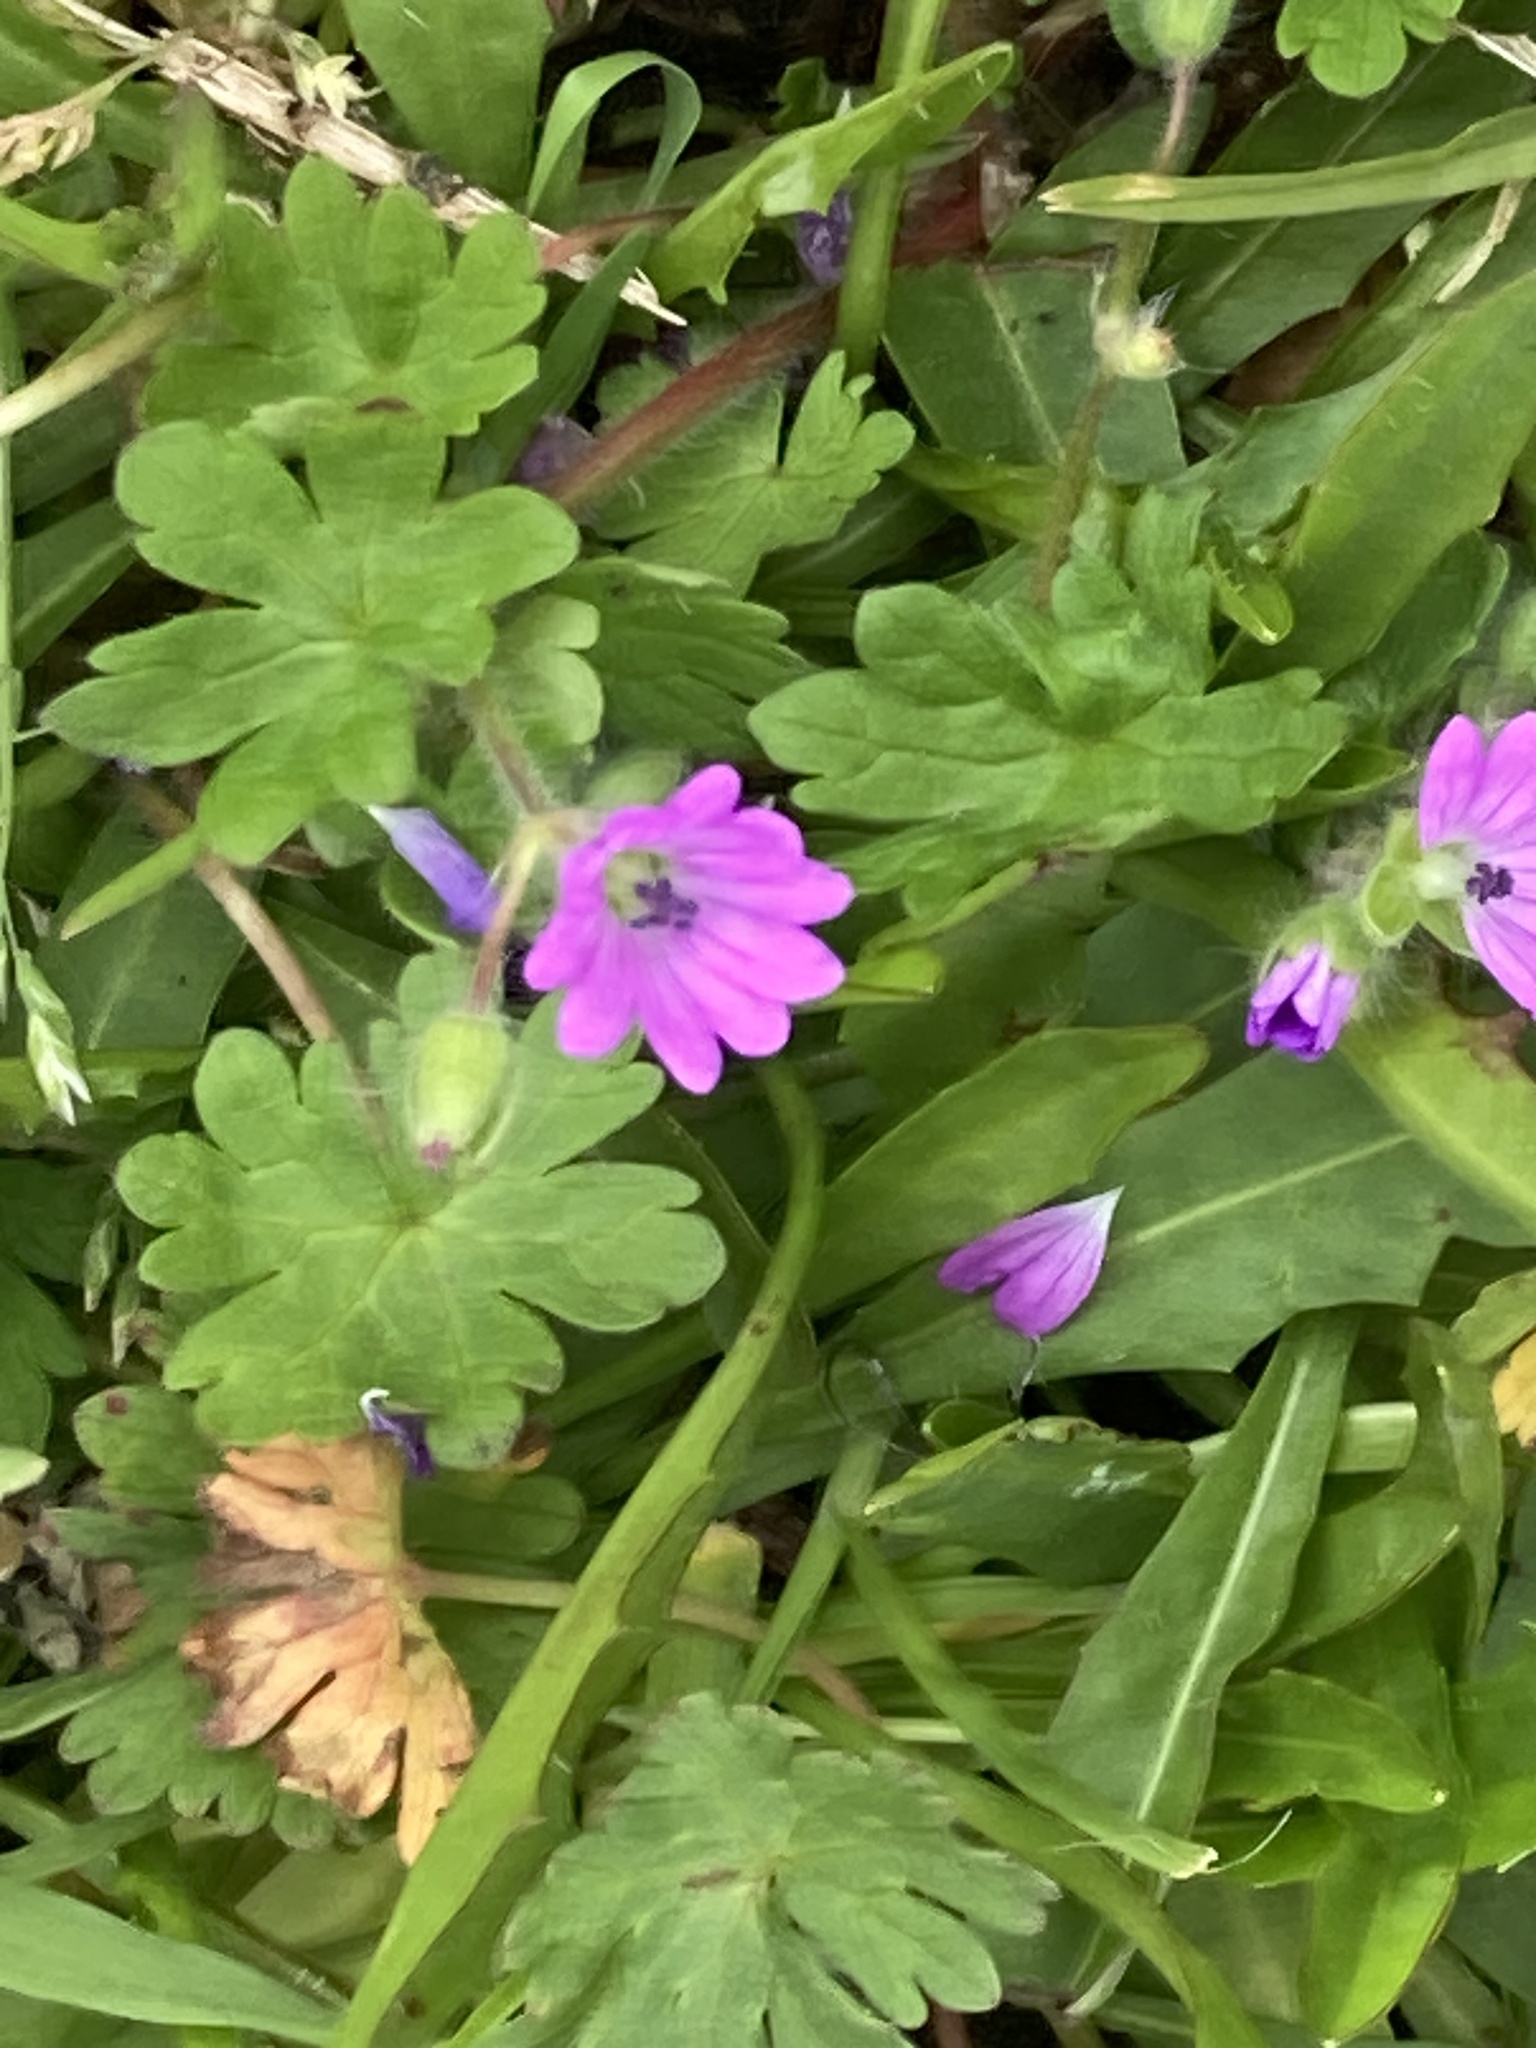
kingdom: Plantae
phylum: Tracheophyta
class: Magnoliopsida
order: Geraniales
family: Geraniaceae
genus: Geranium
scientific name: Geranium molle
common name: Dove's-foot crane's-bill
